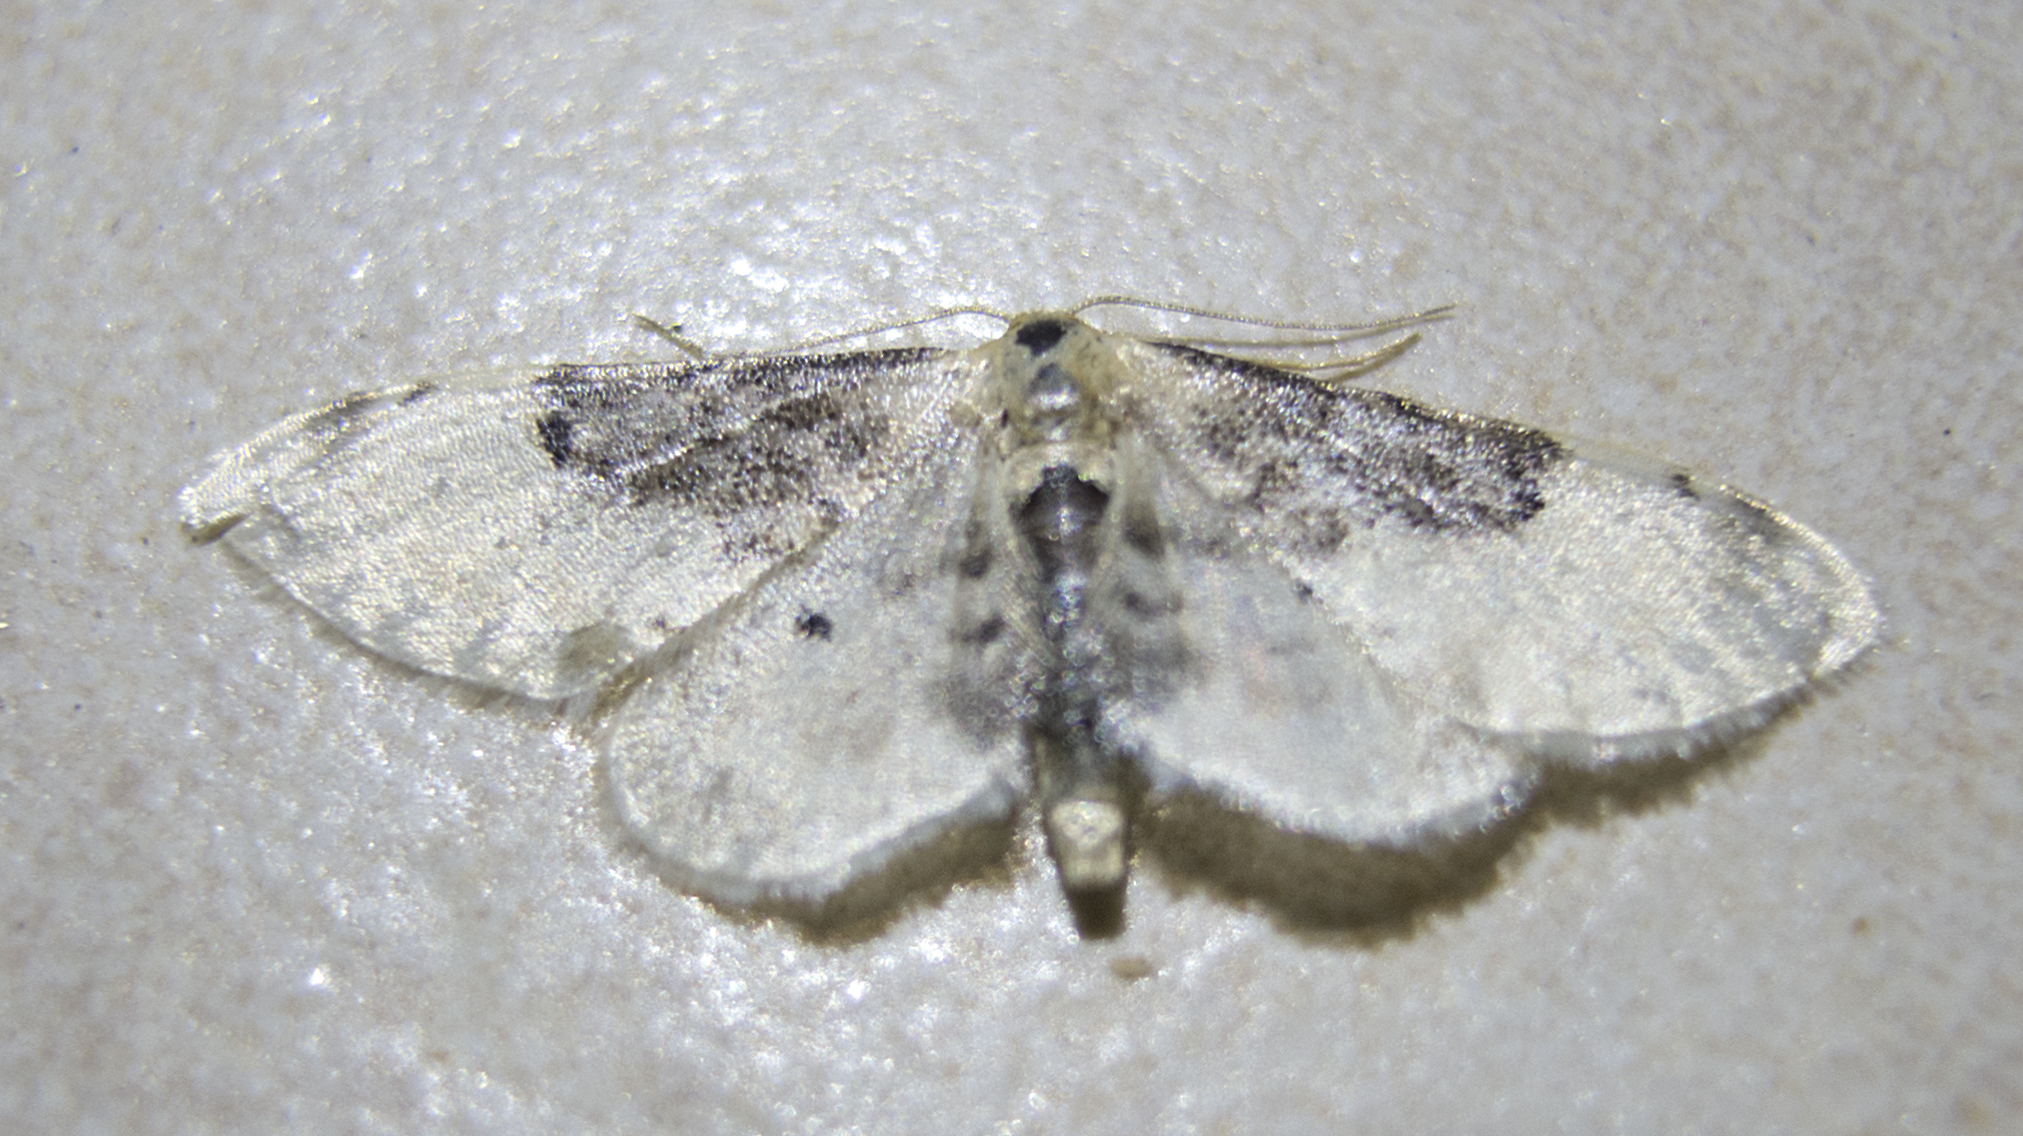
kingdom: Animalia
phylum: Arthropoda
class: Insecta
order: Lepidoptera
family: Geometridae
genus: Idaea
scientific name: Idaea filicata
